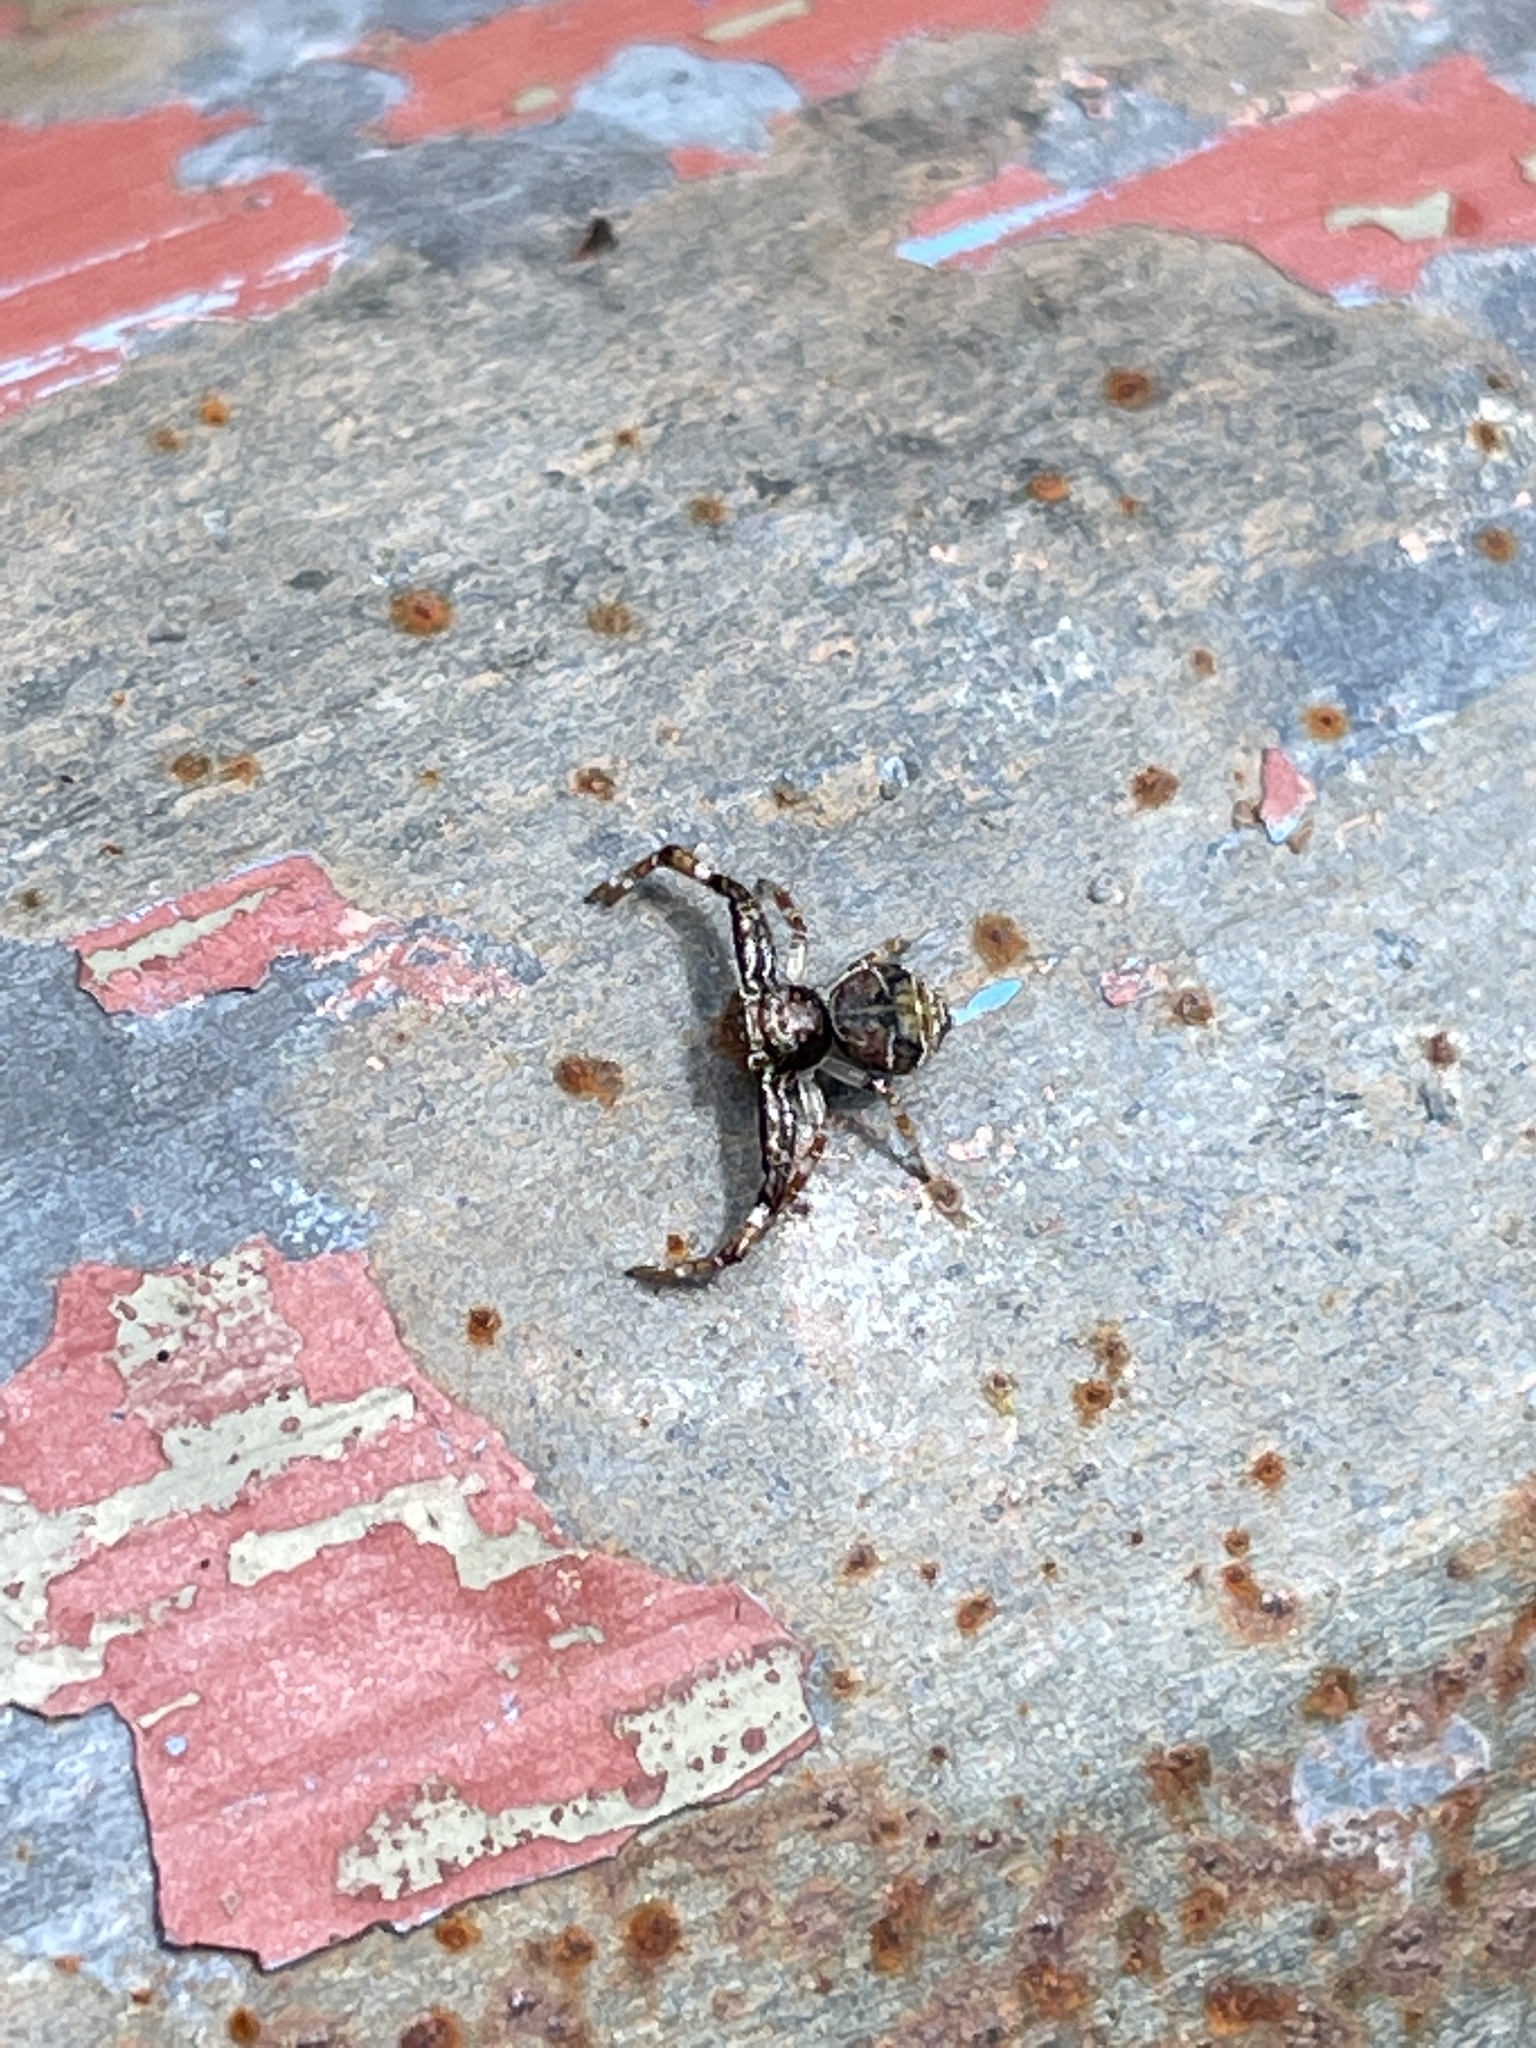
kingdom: Animalia
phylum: Arthropoda
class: Arachnida
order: Araneae
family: Thomisidae
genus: Strigoplus
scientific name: Strigoplus guizhouensis
